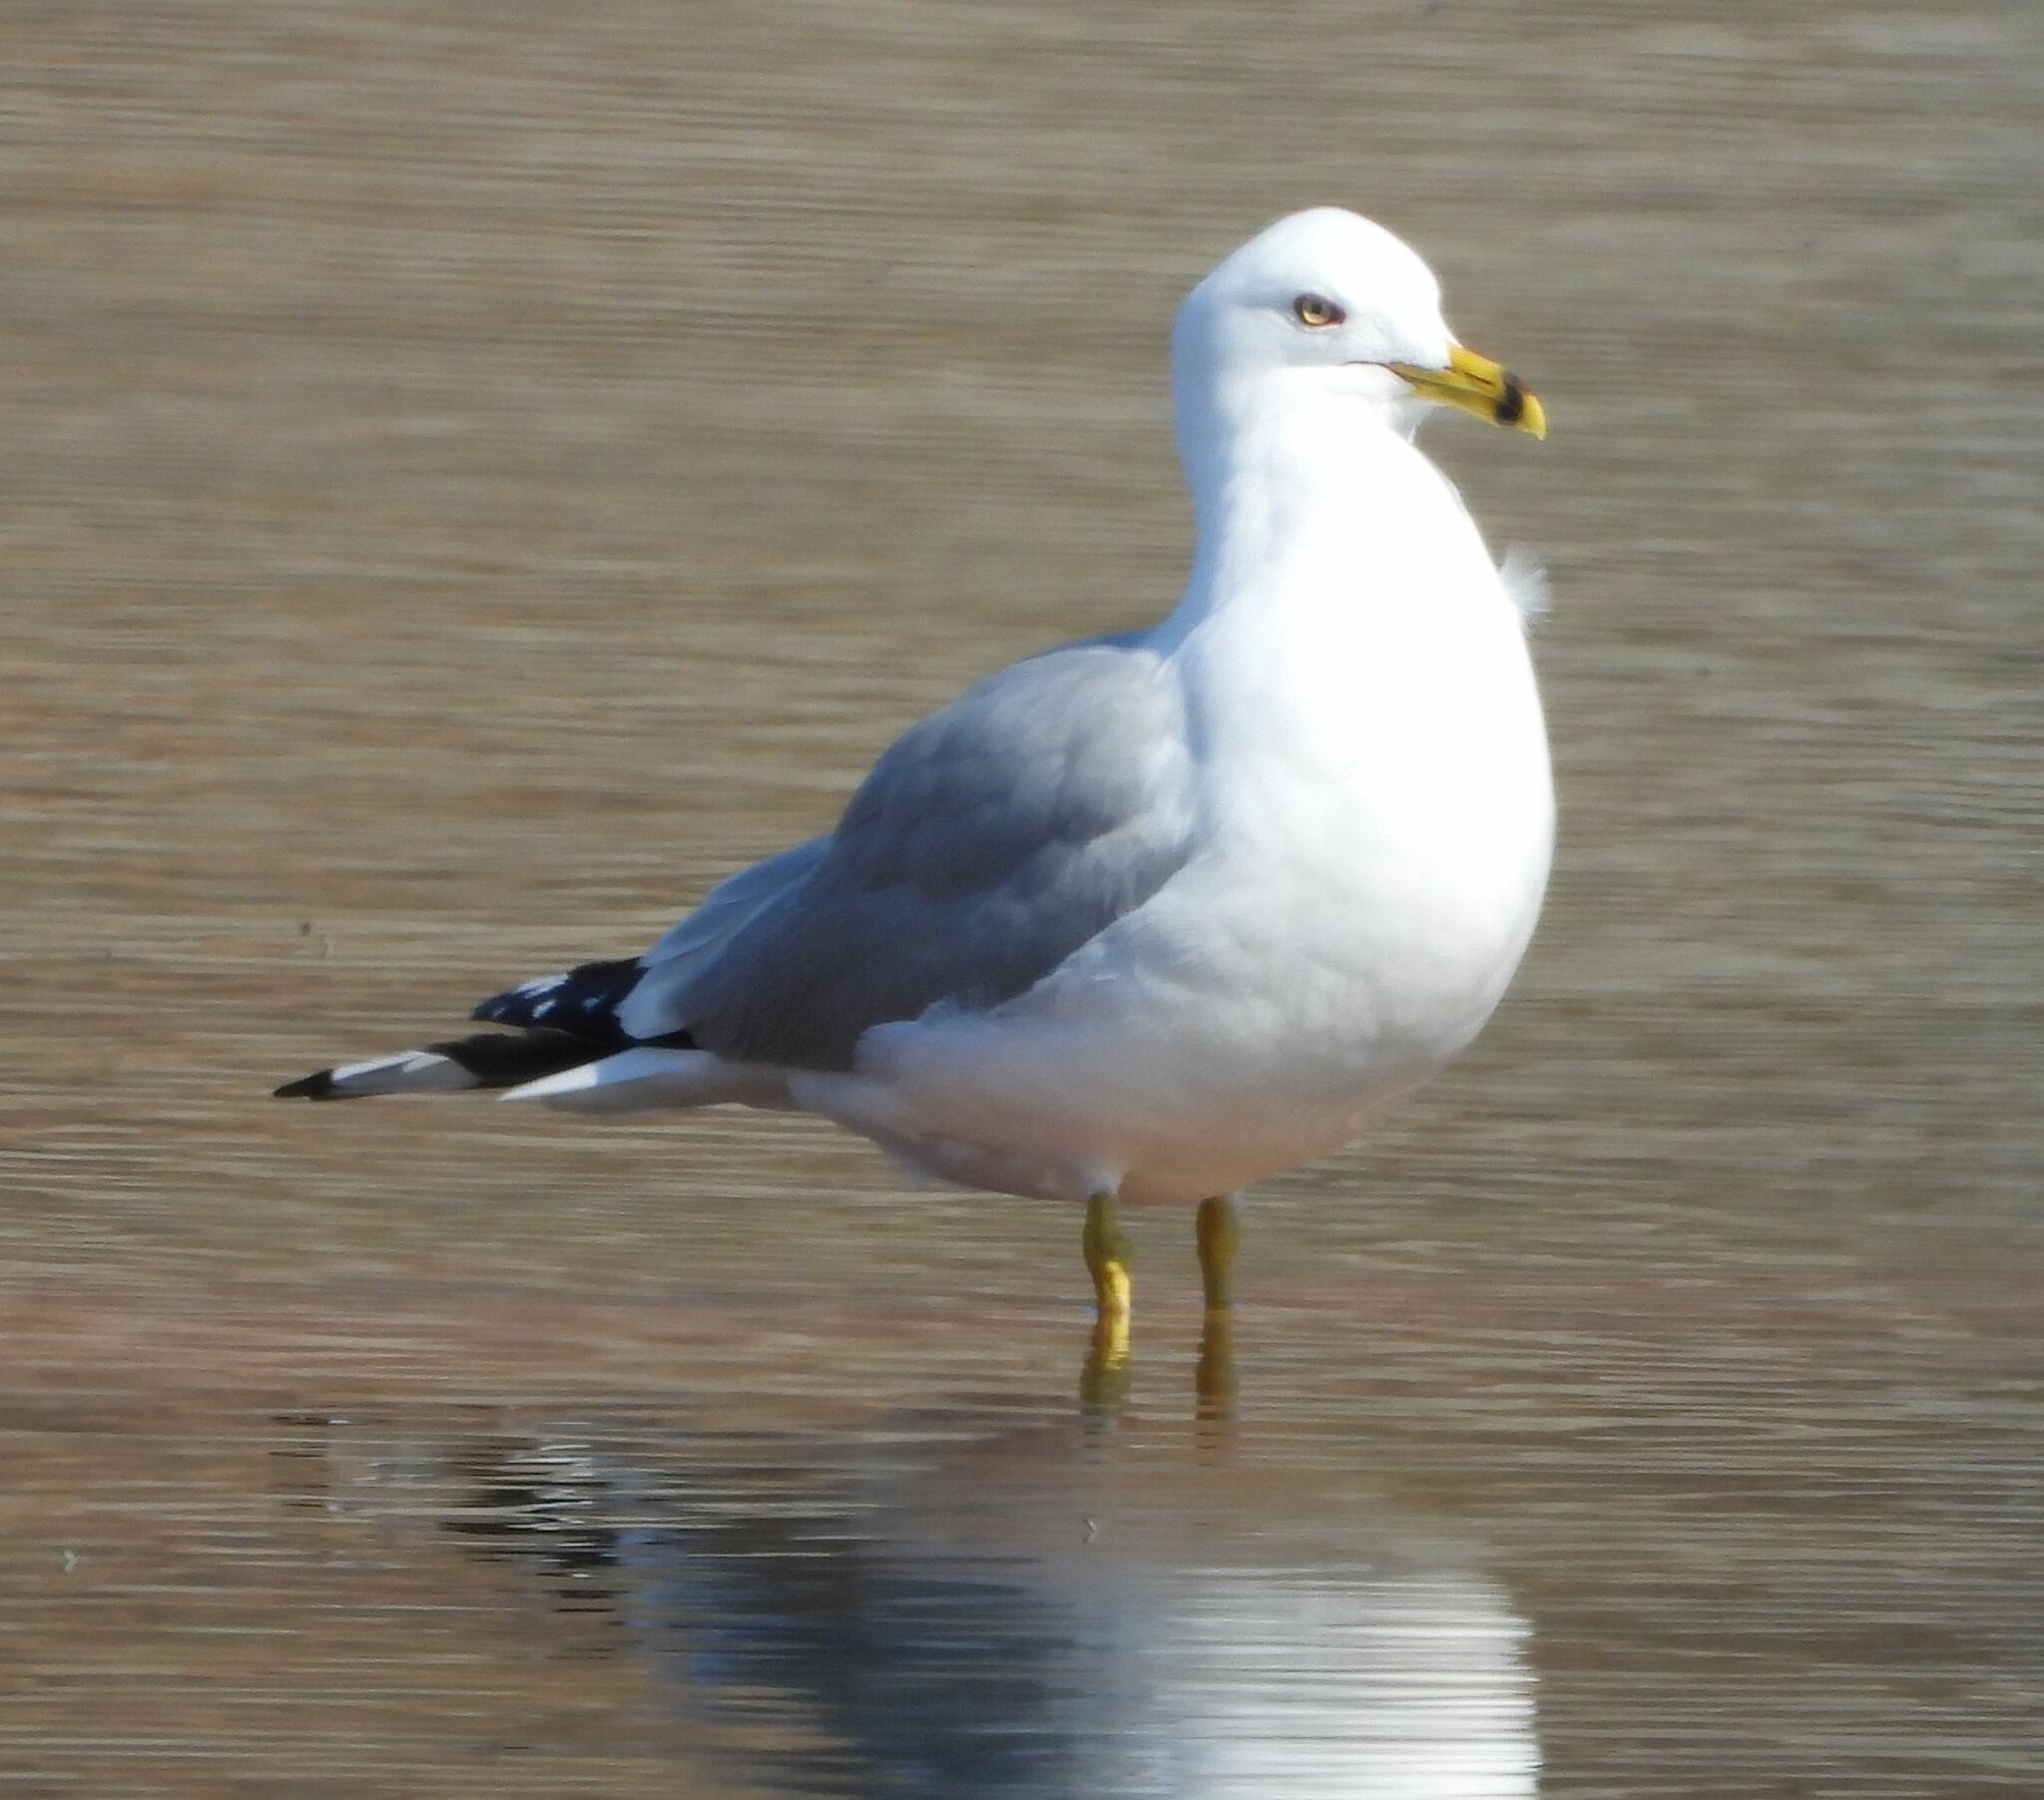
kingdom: Animalia
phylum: Chordata
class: Aves
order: Charadriiformes
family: Laridae
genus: Larus
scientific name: Larus delawarensis
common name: Ring-billed gull
